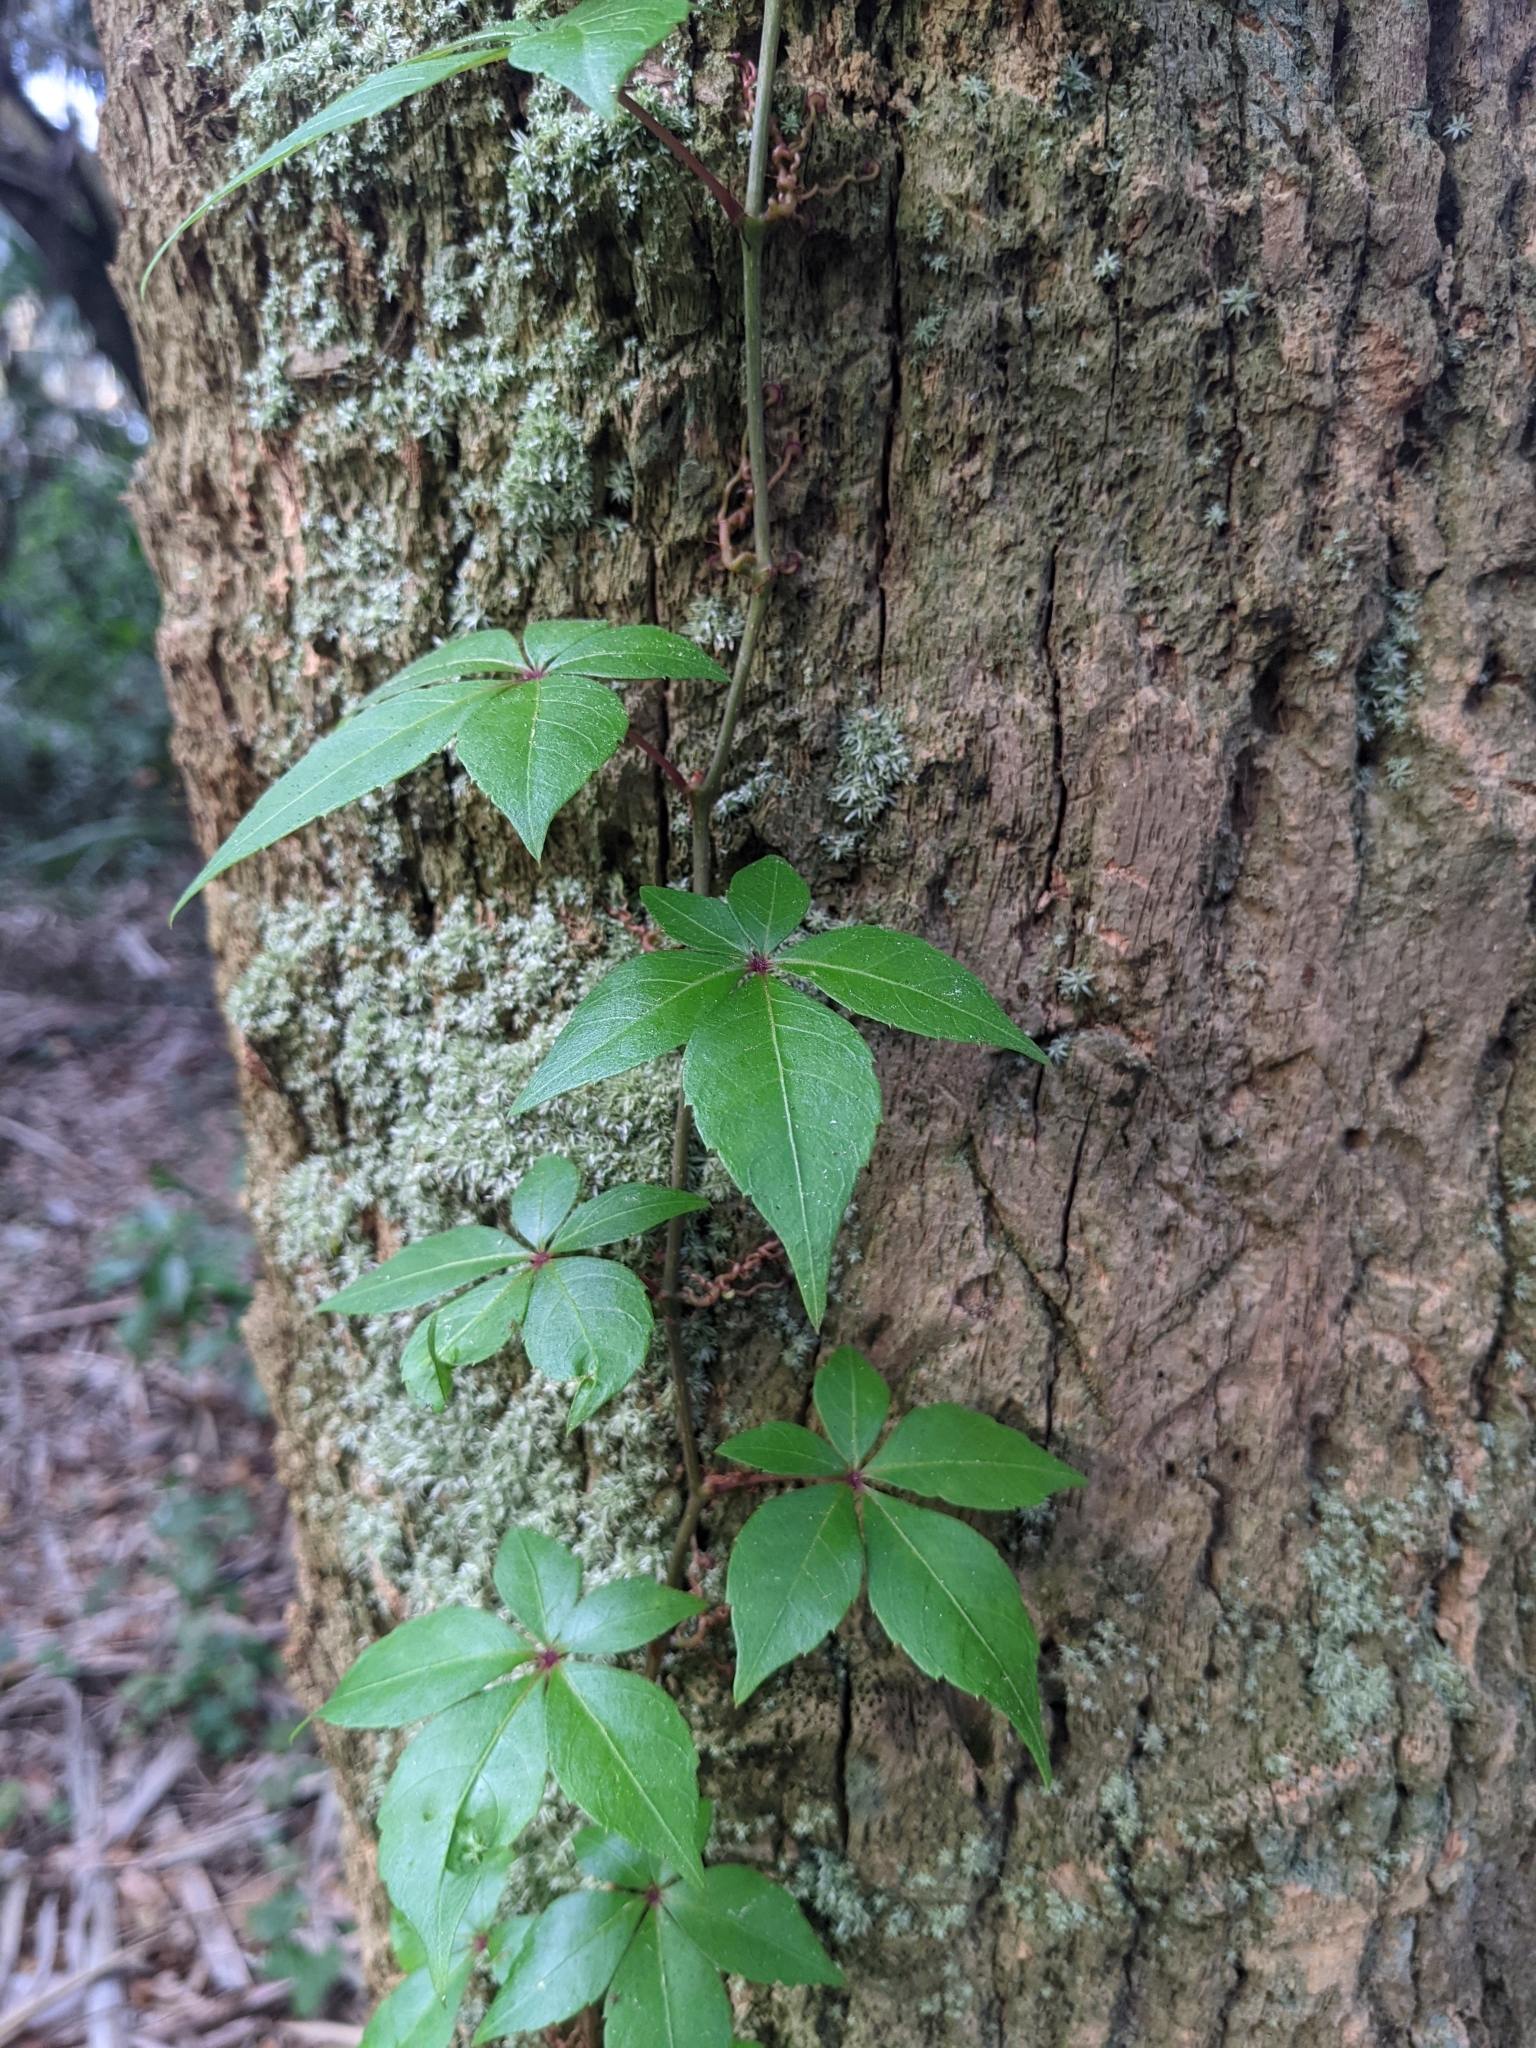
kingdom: Plantae
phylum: Tracheophyta
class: Magnoliopsida
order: Vitales
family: Vitaceae
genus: Parthenocissus
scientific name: Parthenocissus quinquefolia
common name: Virginia-creeper
